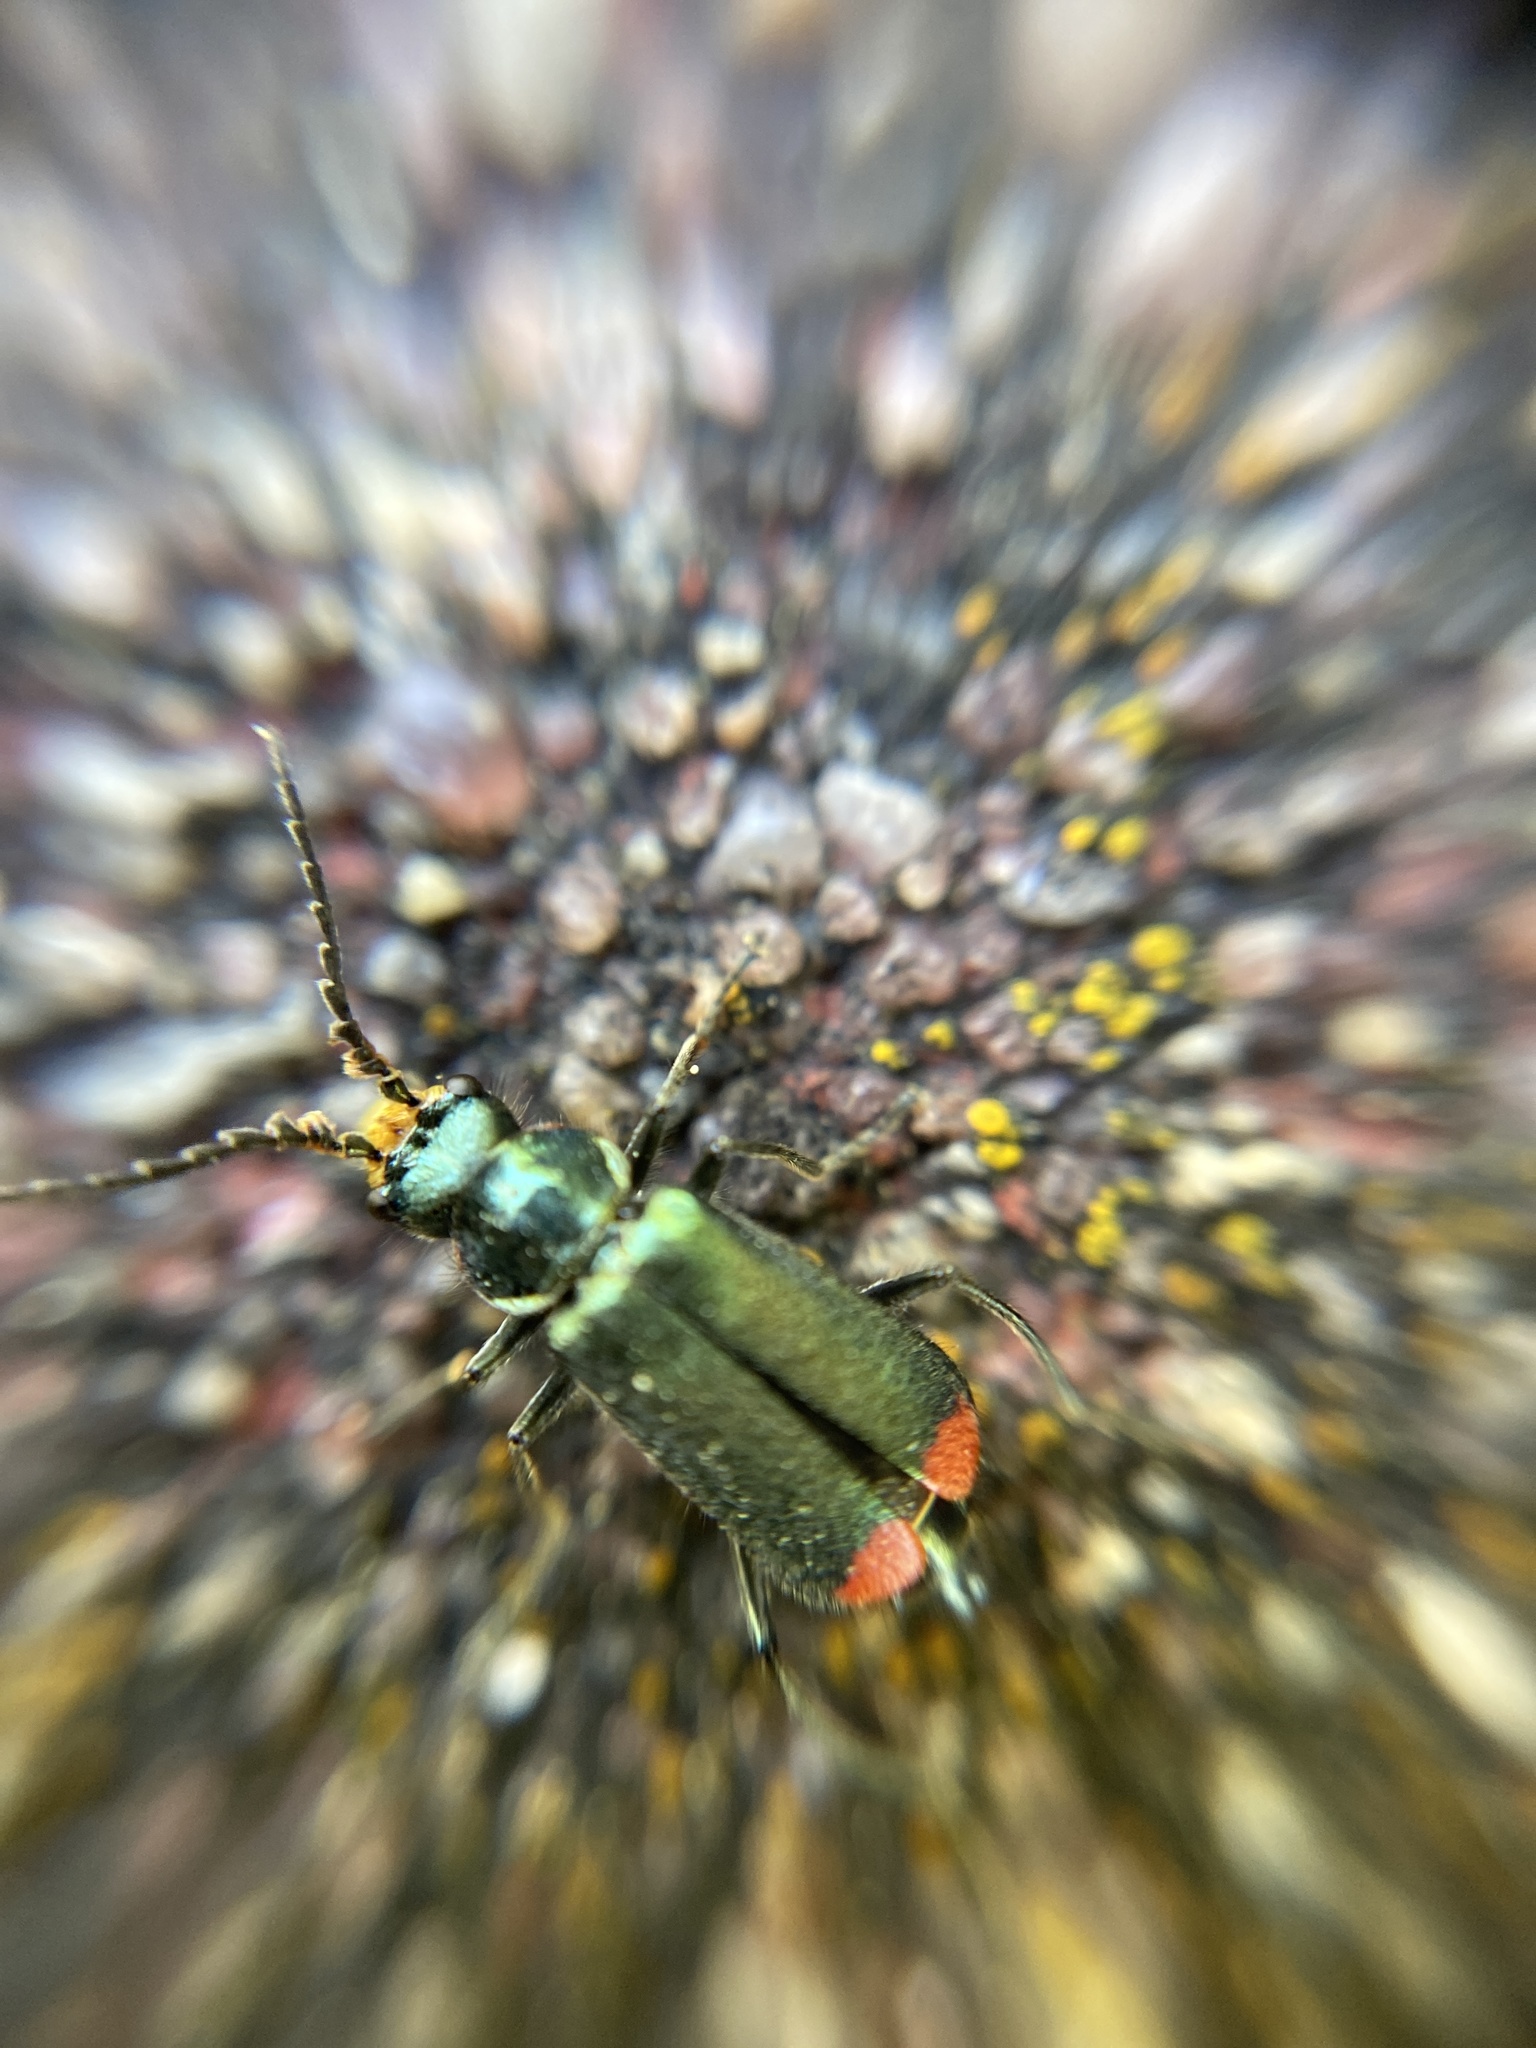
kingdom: Animalia
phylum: Arthropoda
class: Insecta
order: Coleoptera
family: Melyridae
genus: Malachius
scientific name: Malachius bipustulatus
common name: Malachite beetle
